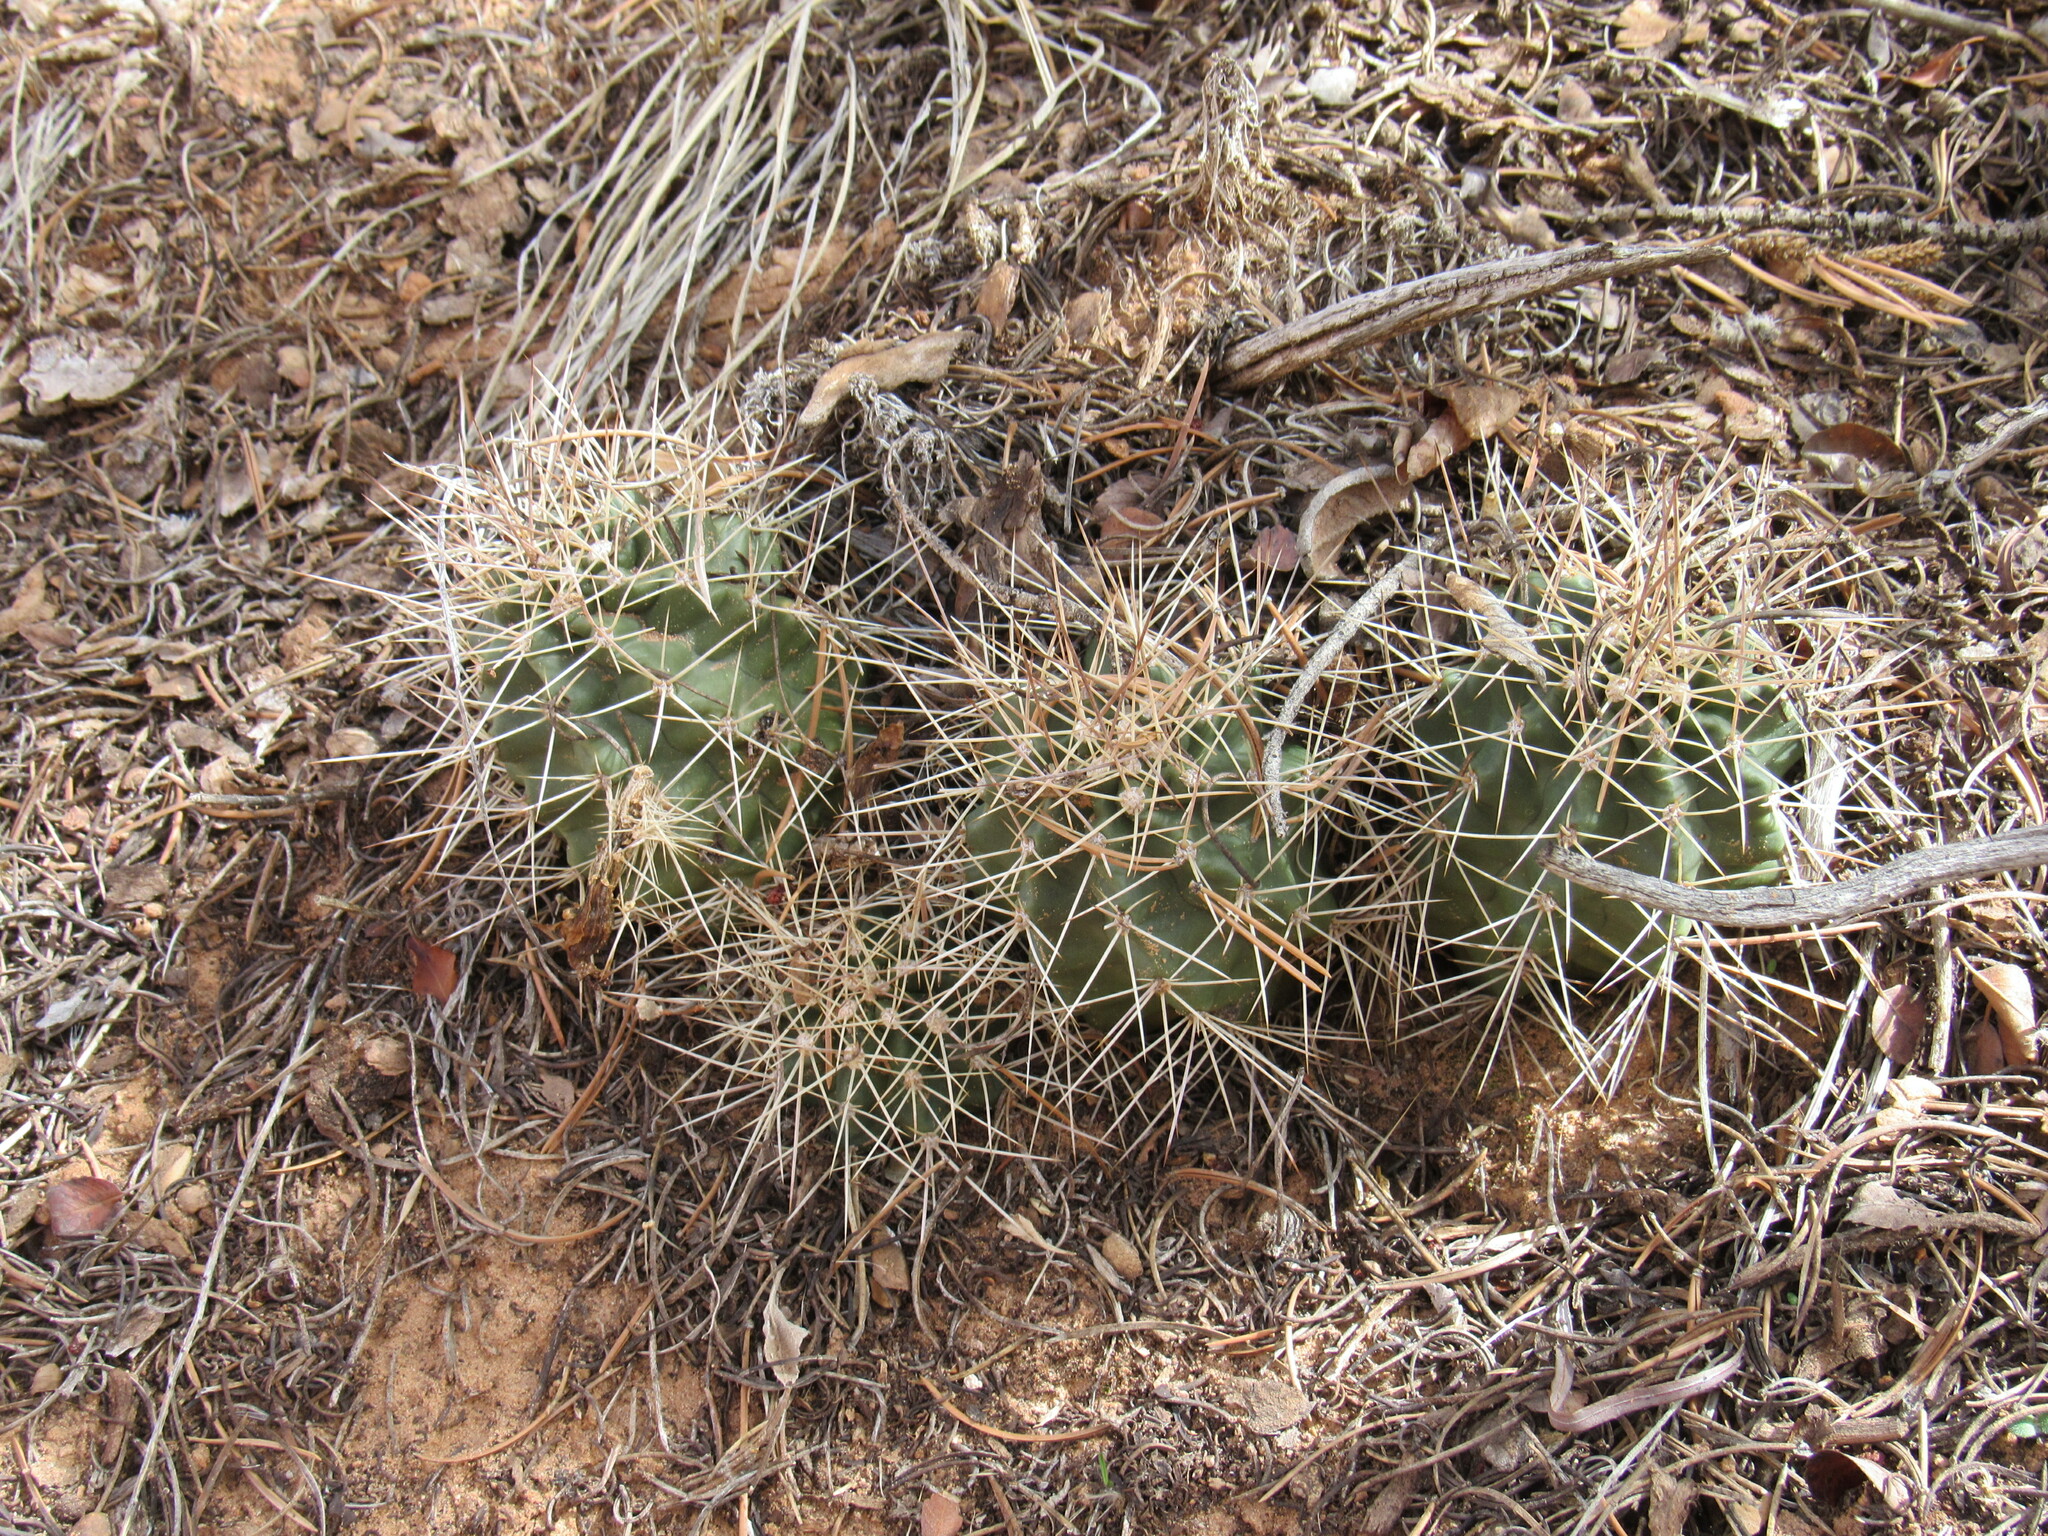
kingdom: Plantae
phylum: Tracheophyta
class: Magnoliopsida
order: Caryophyllales
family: Cactaceae
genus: Echinocereus
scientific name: Echinocereus triglochidiatus
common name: Claretcup hedgehog
